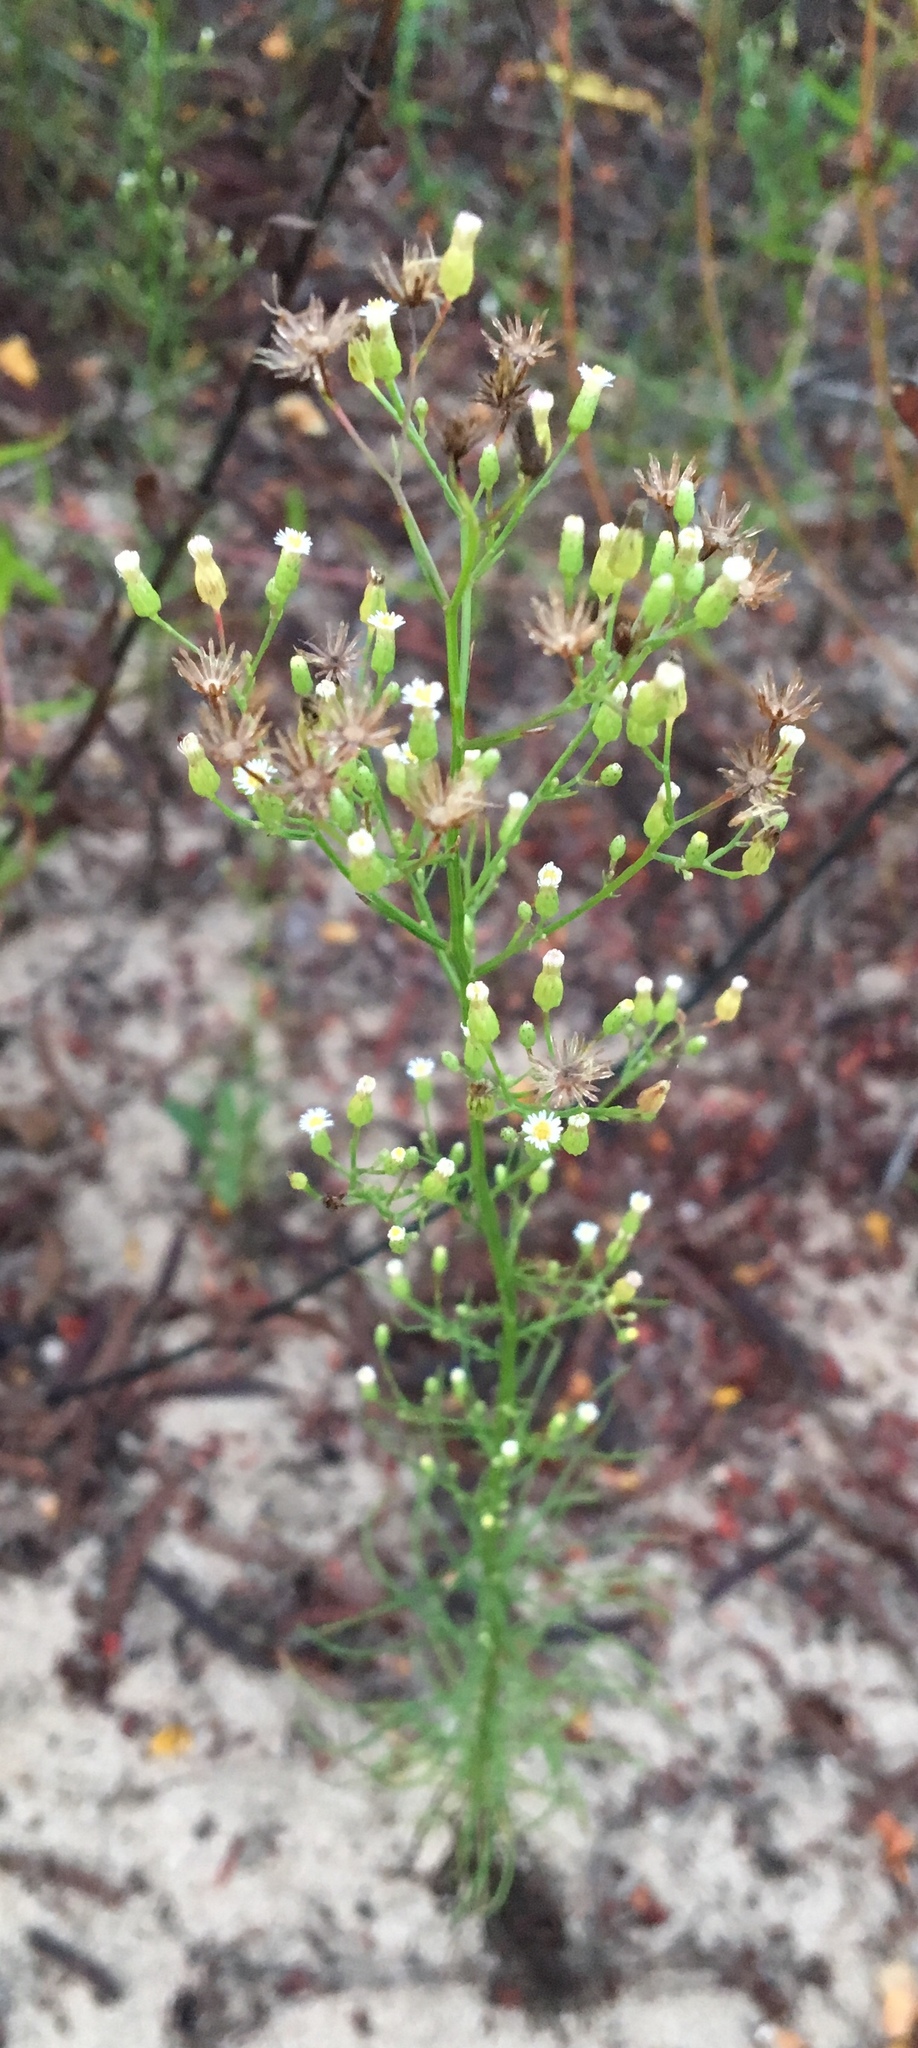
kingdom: Plantae
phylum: Tracheophyta
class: Magnoliopsida
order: Asterales
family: Asteraceae
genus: Erigeron
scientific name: Erigeron canadensis
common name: Canadian fleabane
